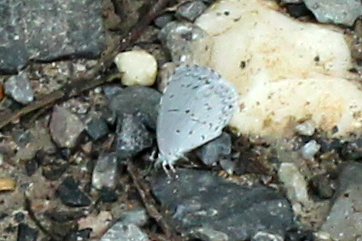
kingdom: Animalia
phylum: Arthropoda
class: Insecta
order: Lepidoptera
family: Lycaenidae
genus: Cyaniris
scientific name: Cyaniris neglecta
